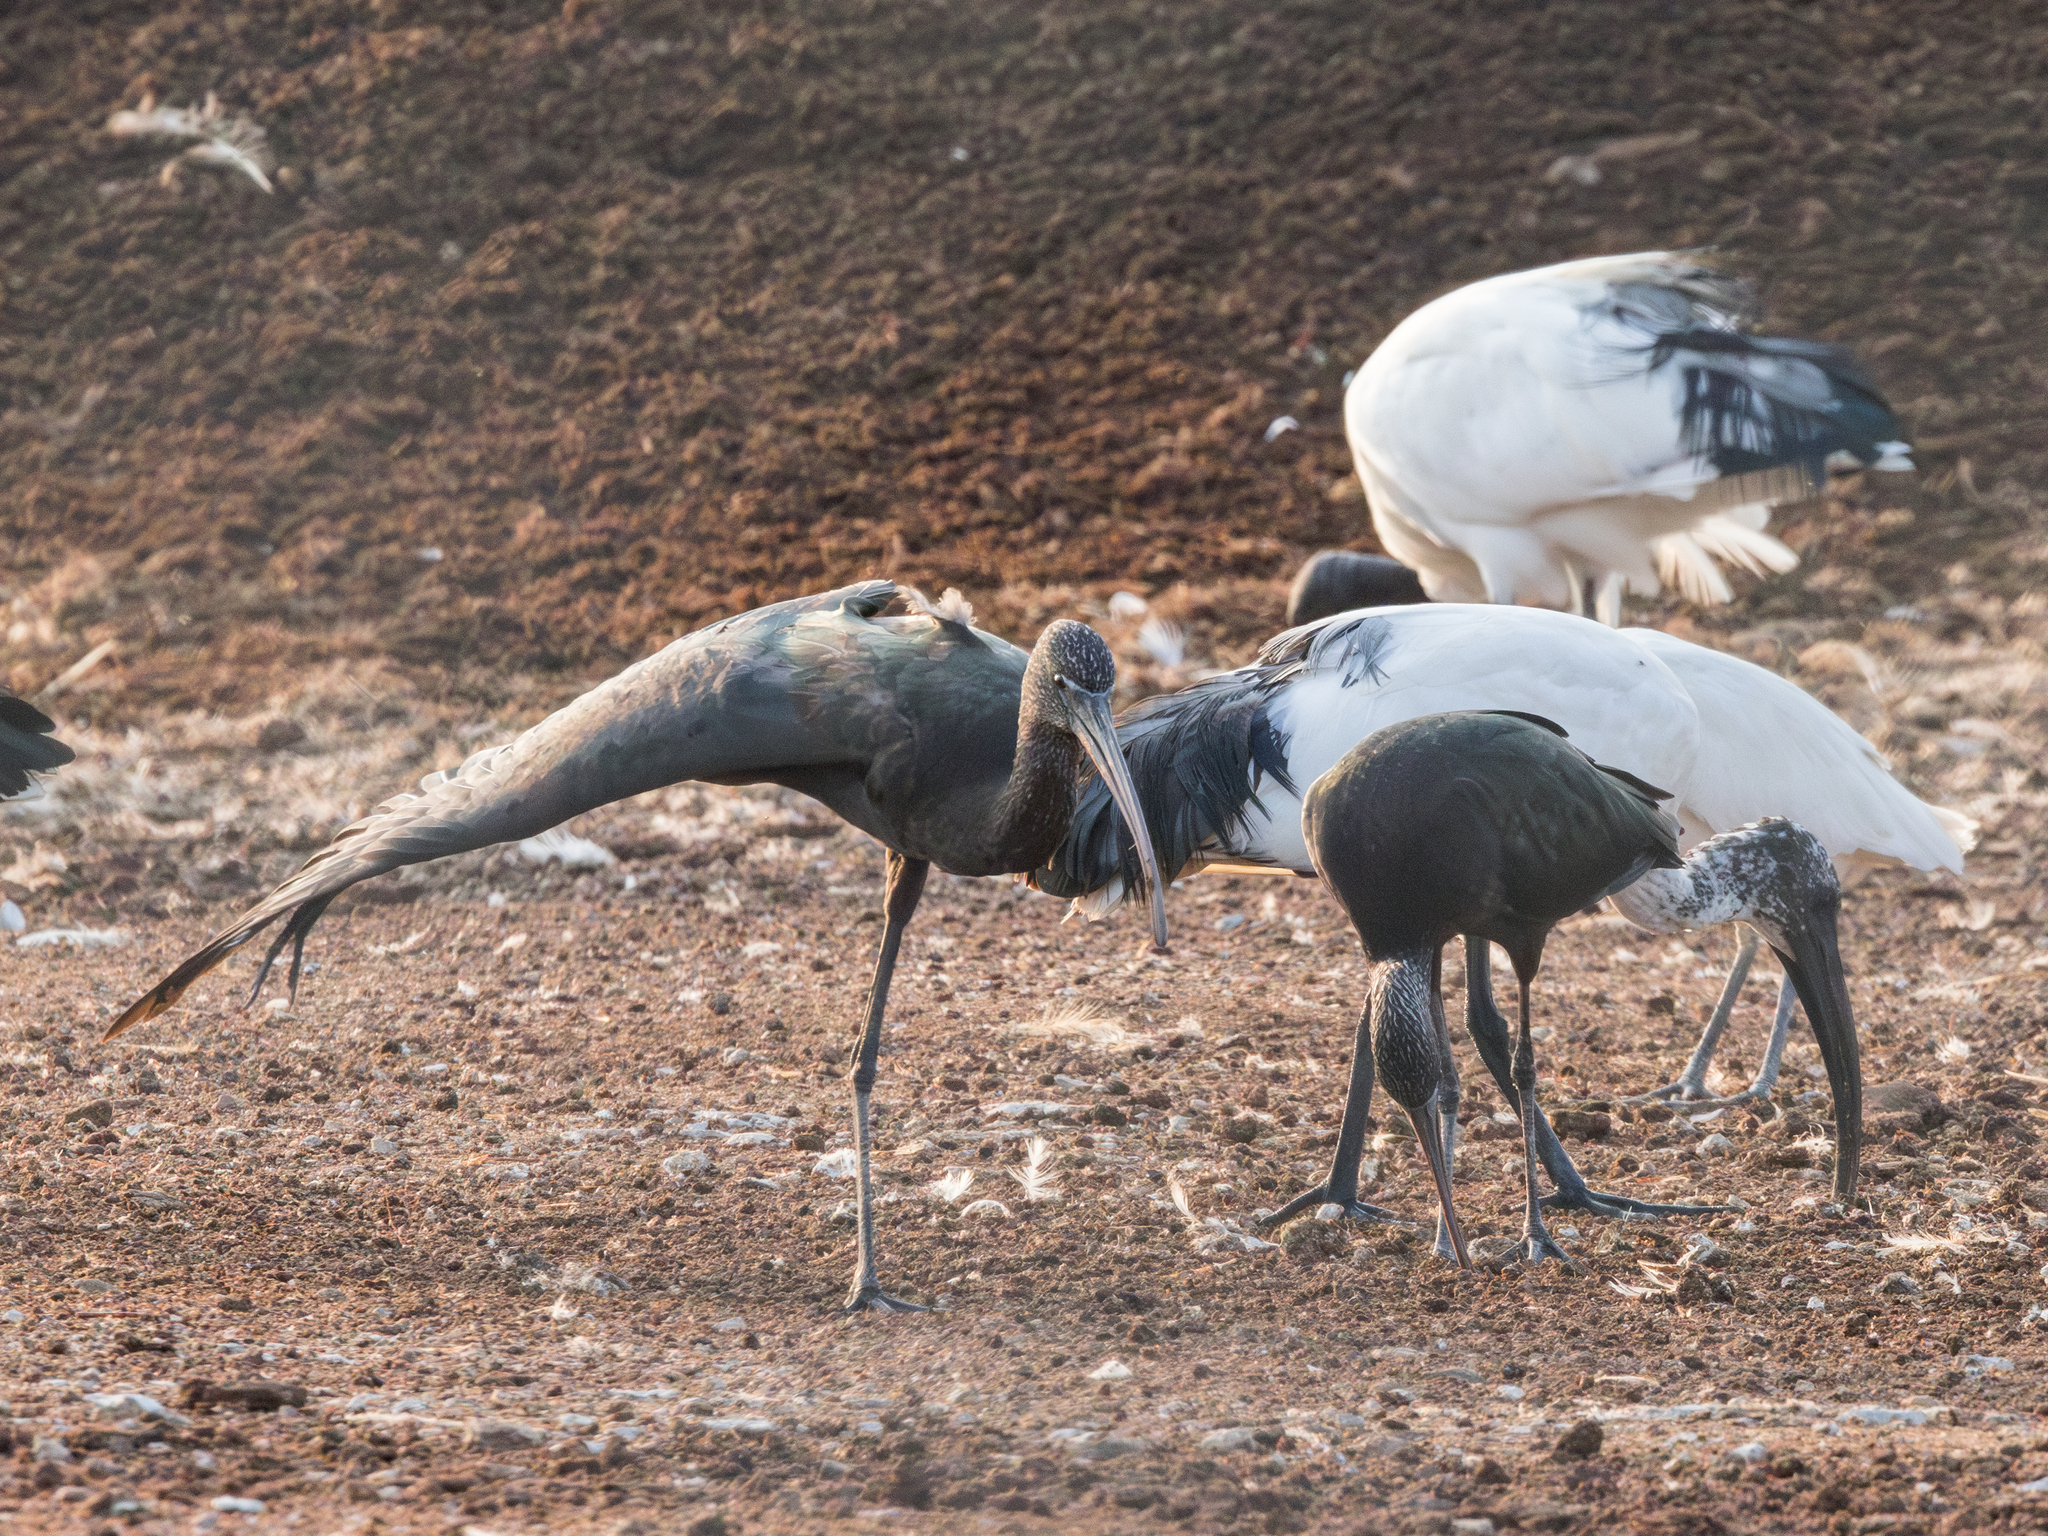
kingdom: Animalia
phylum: Chordata
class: Aves
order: Pelecaniformes
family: Threskiornithidae
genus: Plegadis
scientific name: Plegadis falcinellus
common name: Glossy ibis
